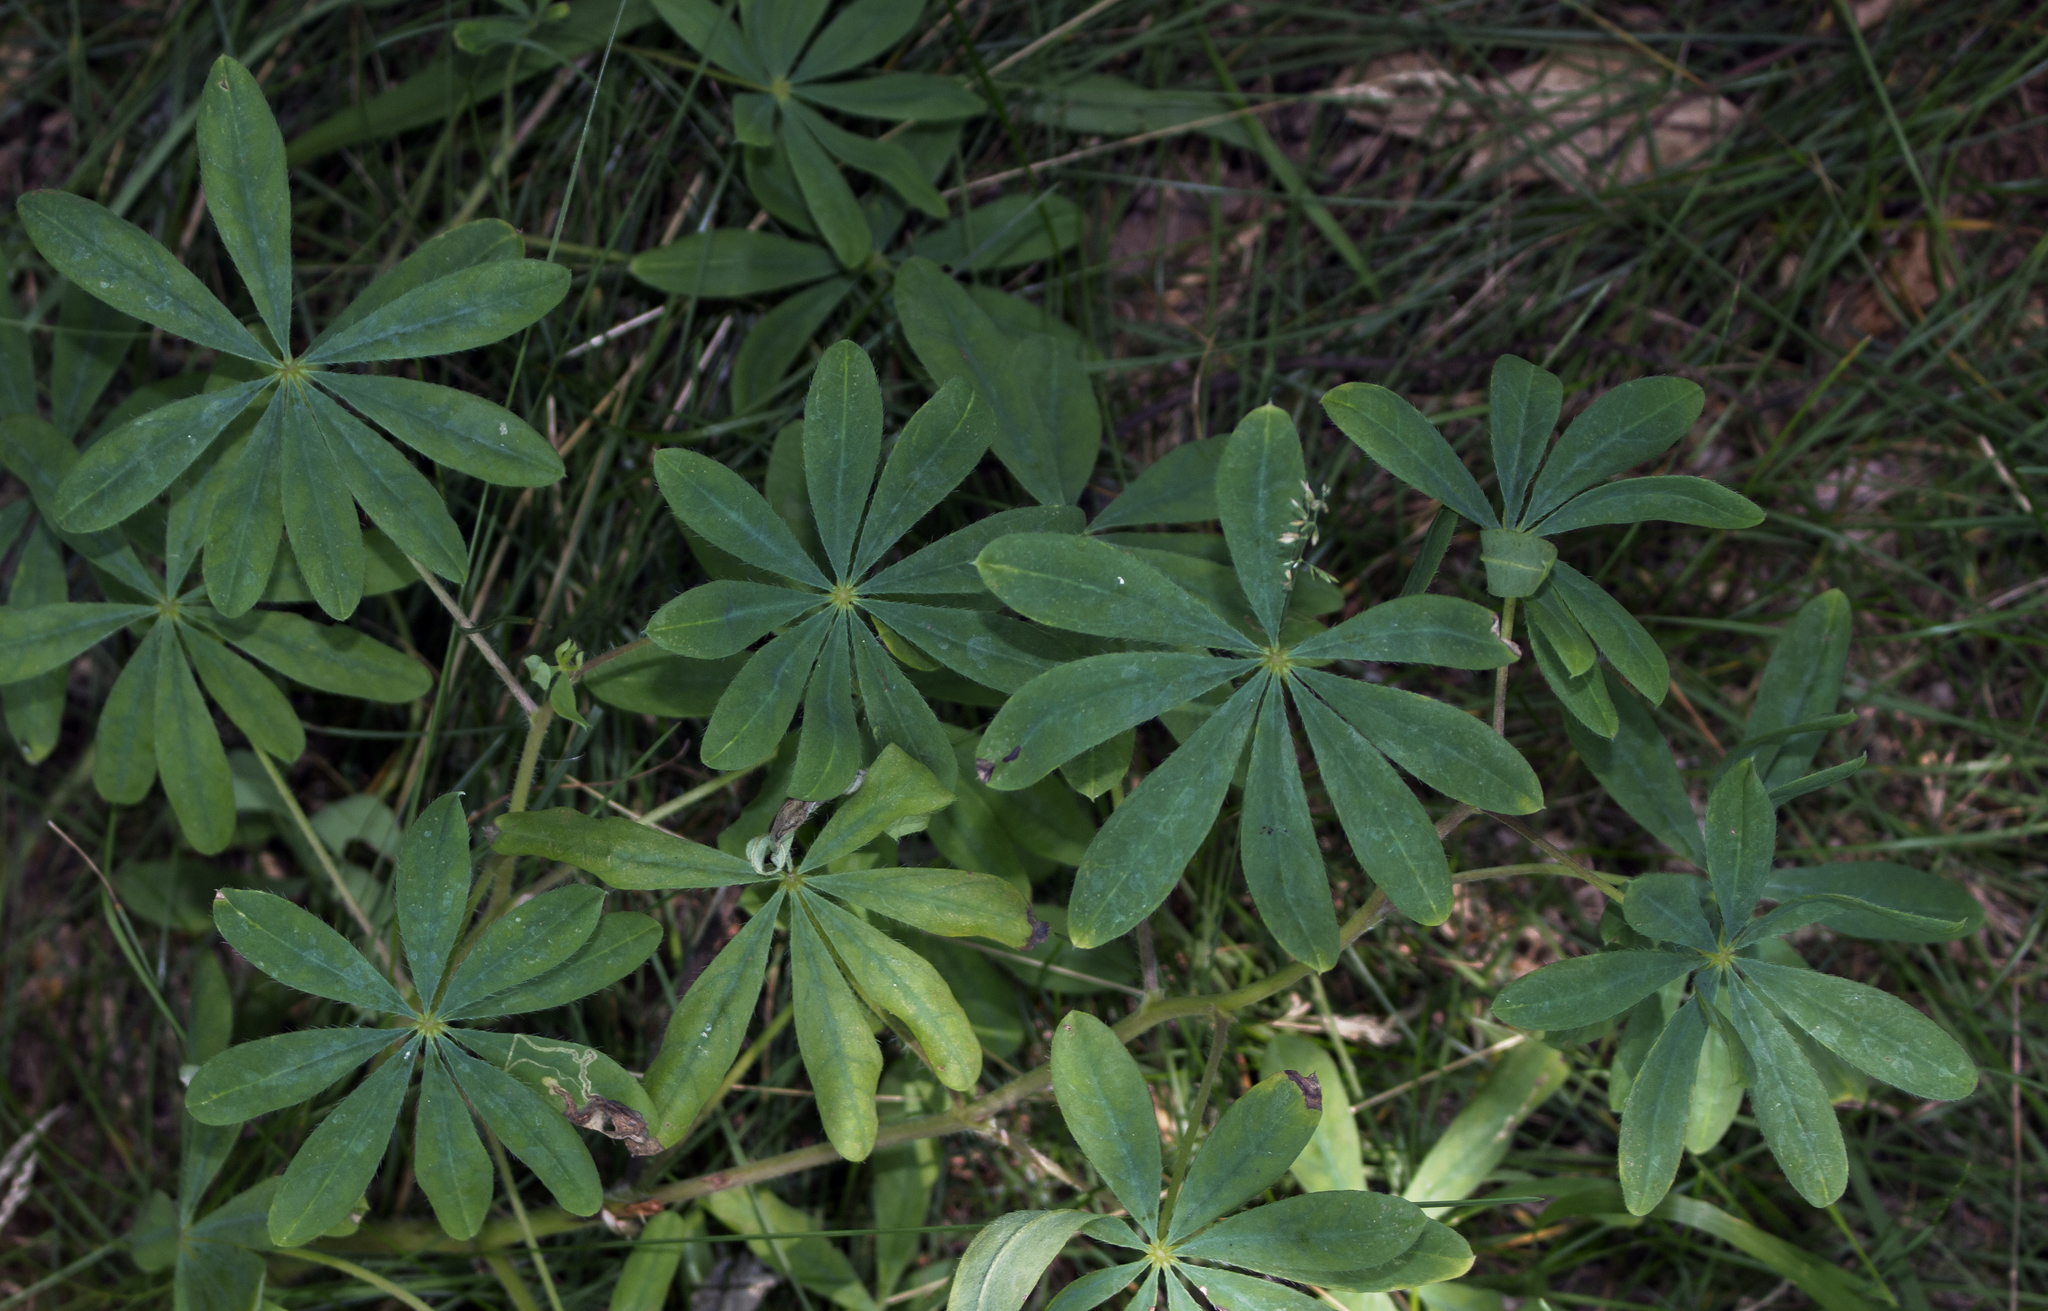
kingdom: Plantae
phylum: Tracheophyta
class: Magnoliopsida
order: Fabales
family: Fabaceae
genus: Lupinus
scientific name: Lupinus perennis
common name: Sundial lupine
